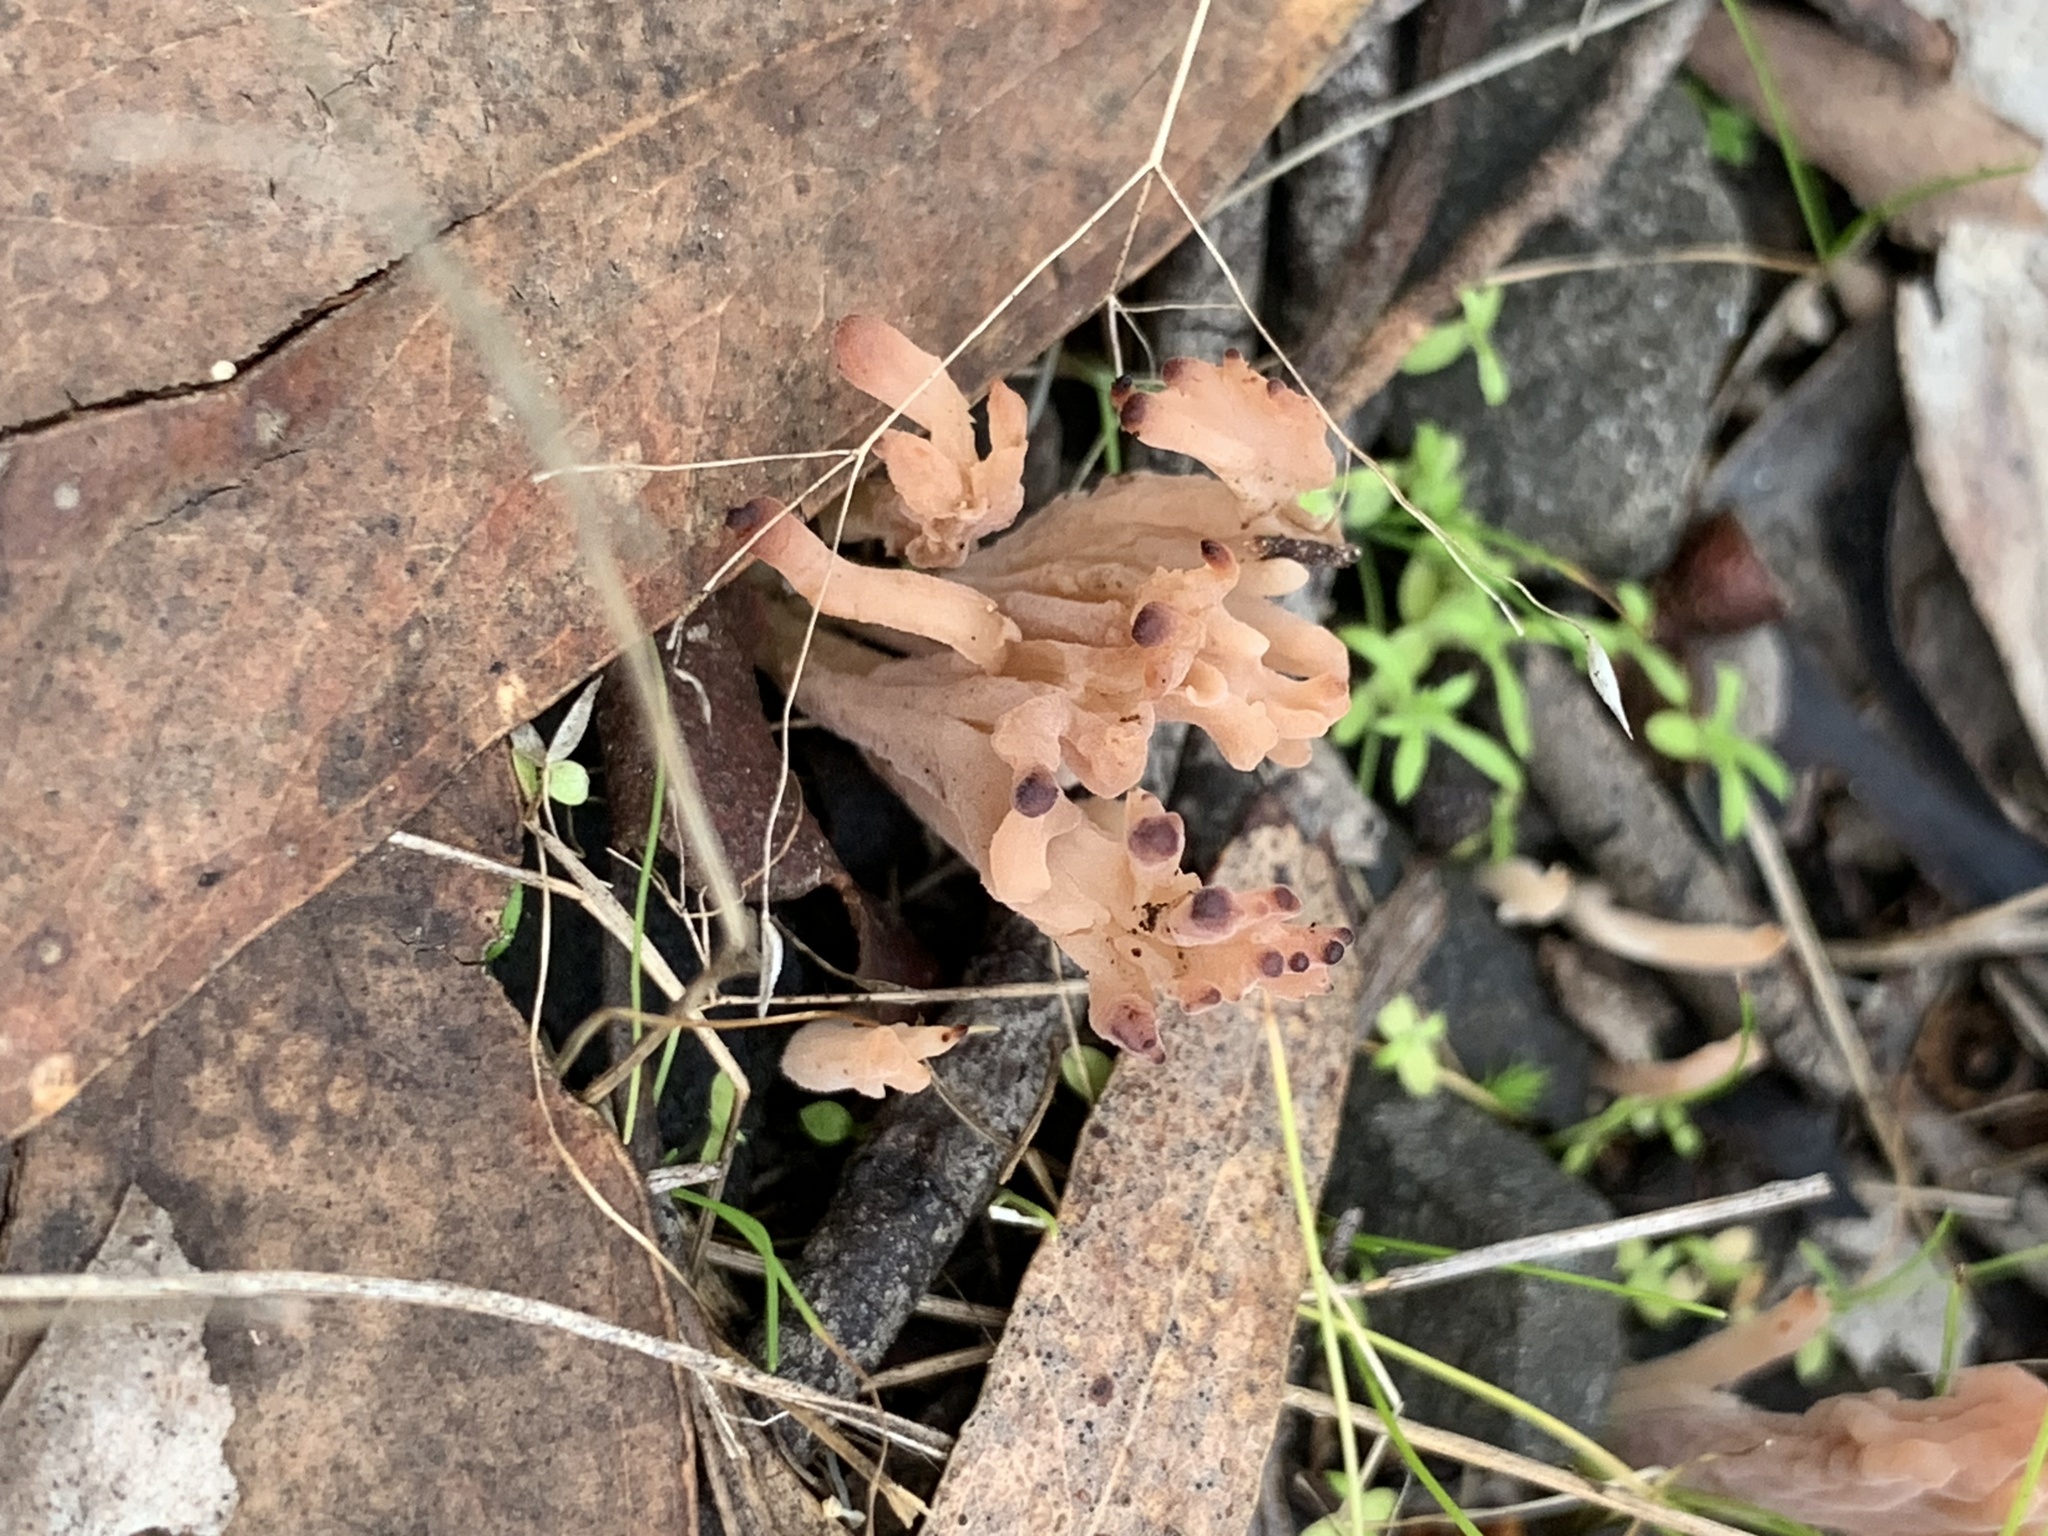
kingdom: Fungi
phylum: Basidiomycota
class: Agaricomycetes
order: Cantharellales
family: Hydnaceae
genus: Clavulina
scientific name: Clavulina vinaceocervina
